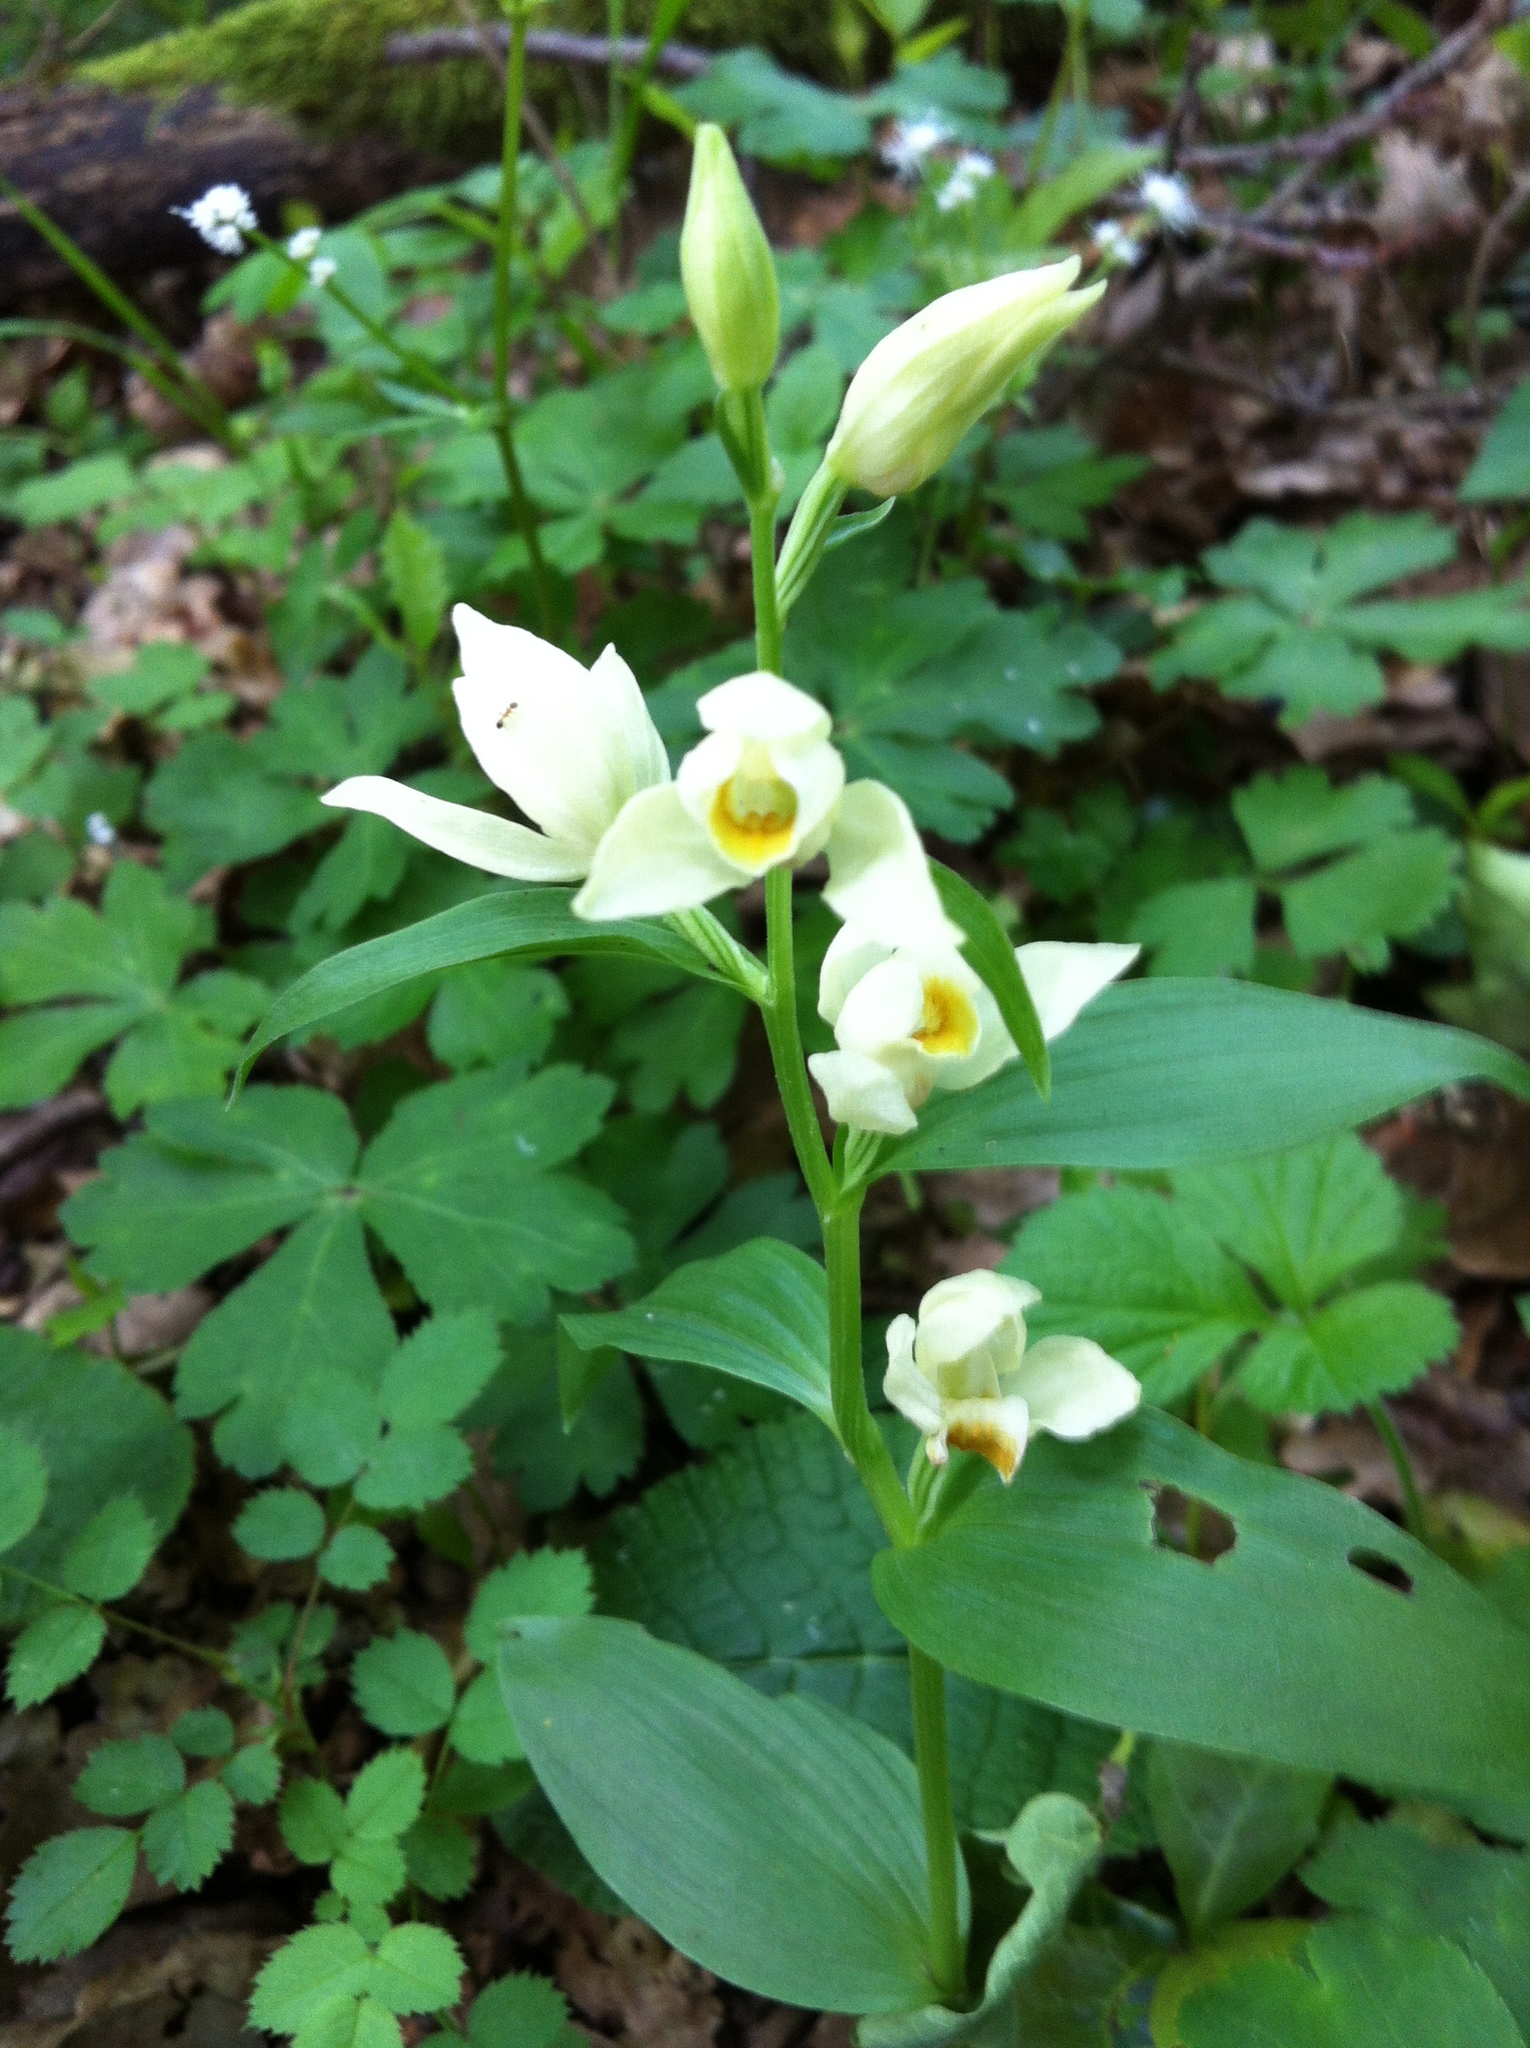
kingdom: Plantae
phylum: Tracheophyta
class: Liliopsida
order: Asparagales
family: Orchidaceae
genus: Cephalanthera
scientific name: Cephalanthera damasonium
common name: White helleborine
